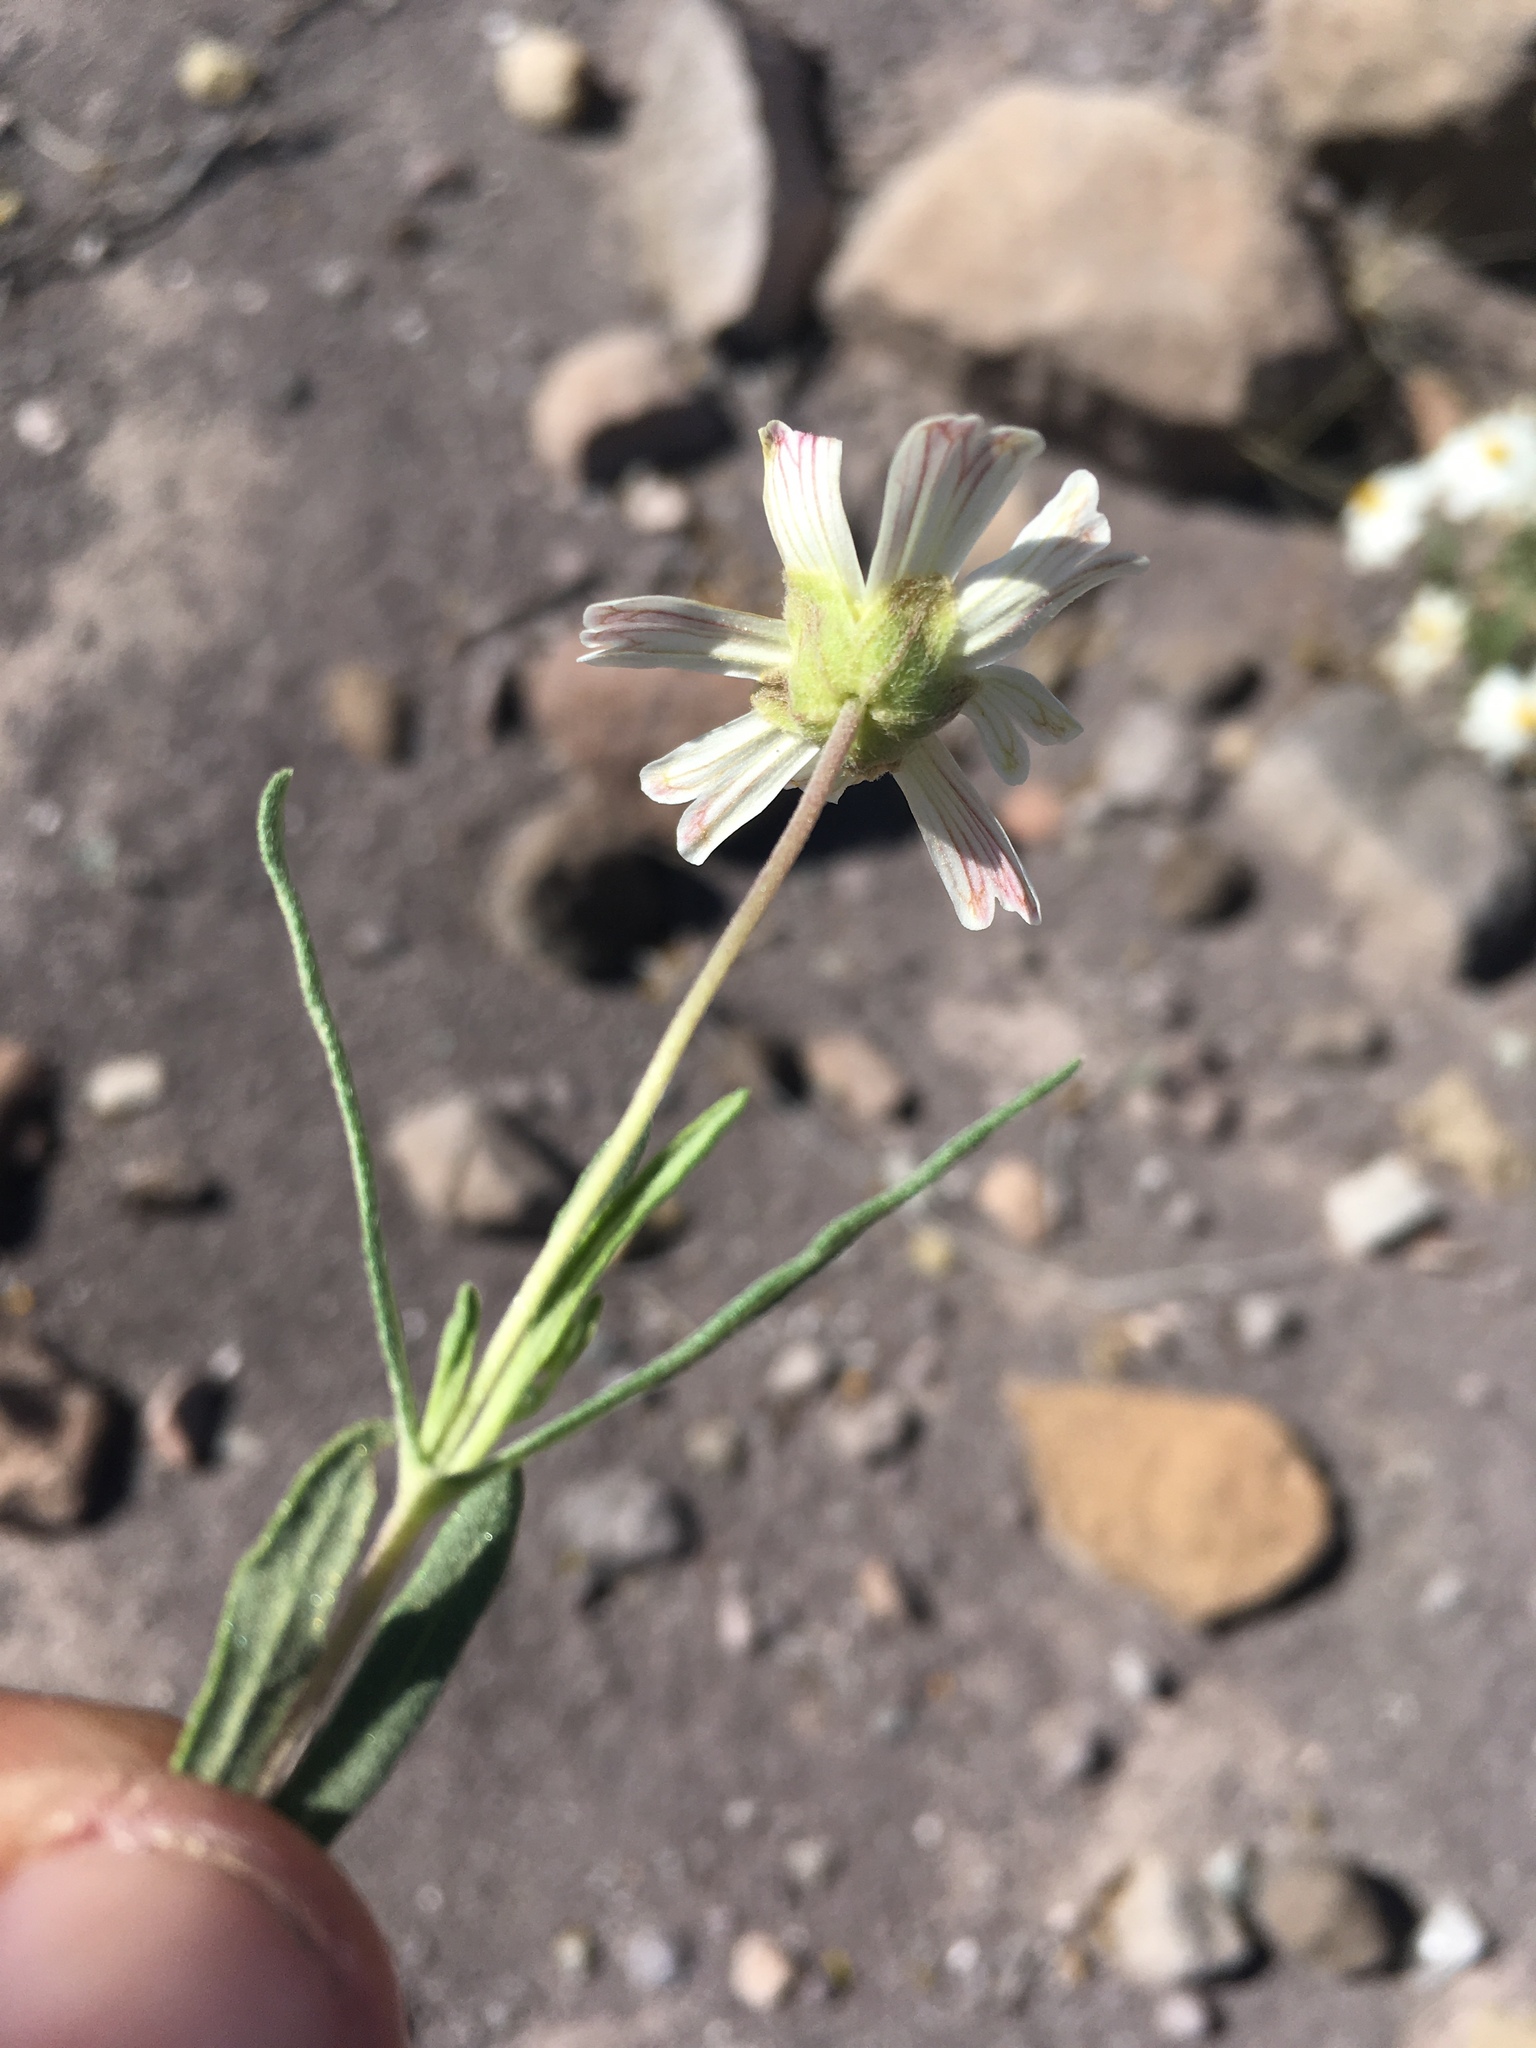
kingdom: Plantae
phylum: Tracheophyta
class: Magnoliopsida
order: Asterales
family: Asteraceae
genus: Melampodium
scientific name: Melampodium leucanthum
